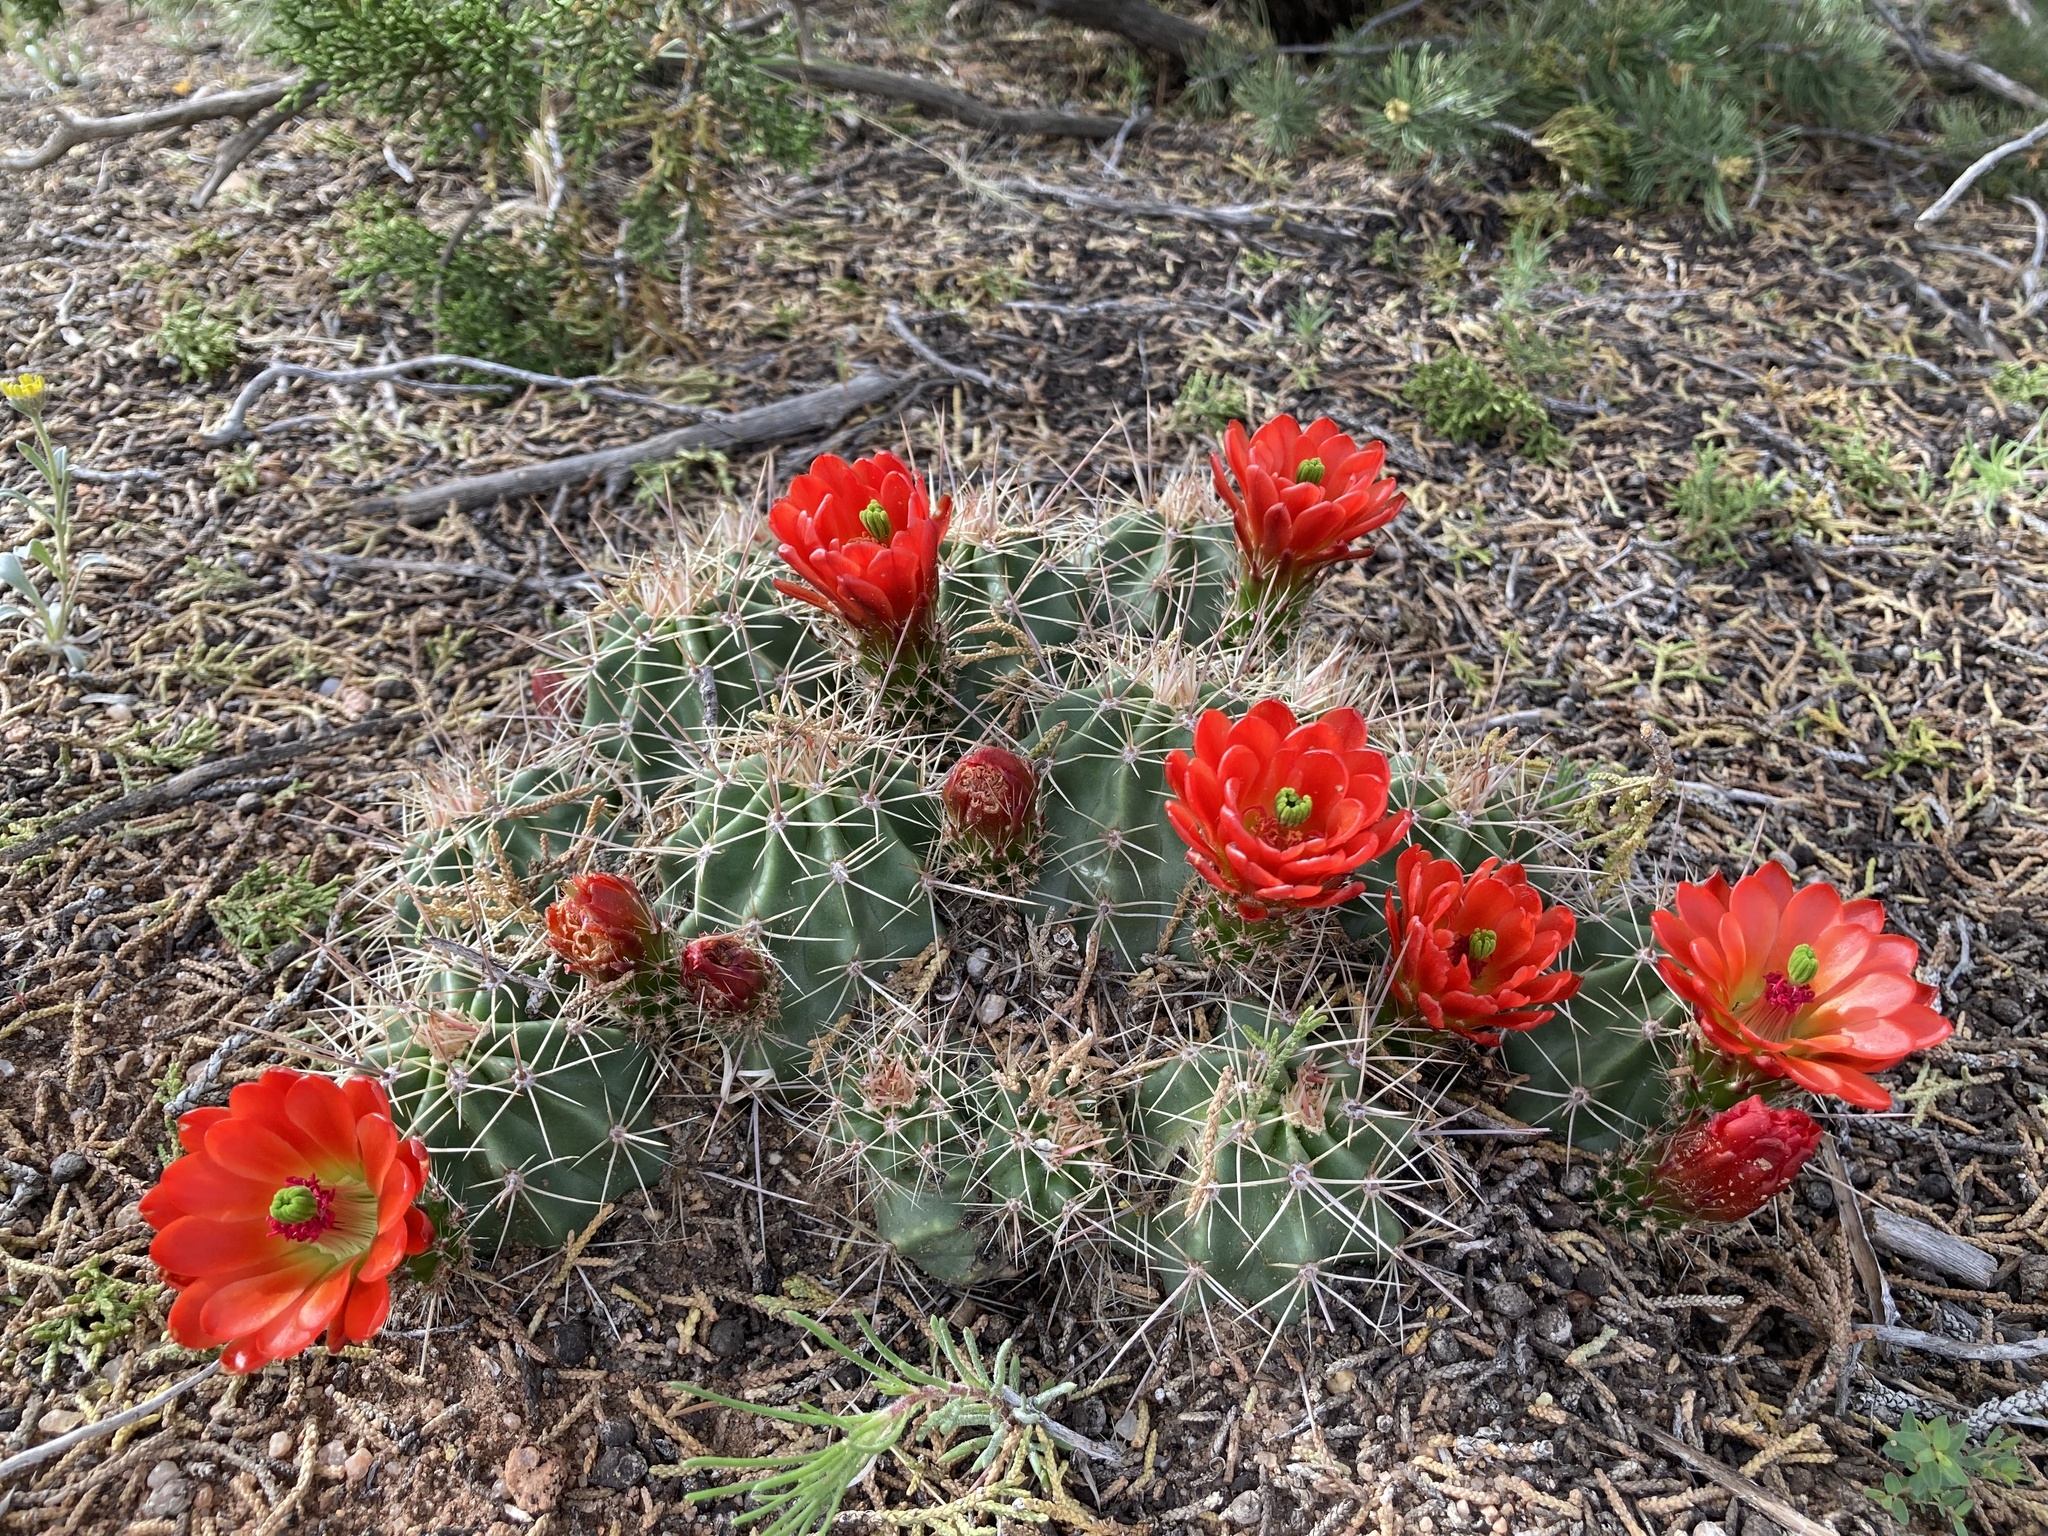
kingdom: Plantae
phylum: Tracheophyta
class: Magnoliopsida
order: Caryophyllales
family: Cactaceae
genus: Echinocereus
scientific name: Echinocereus coccineus
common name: Scarlet hedgehog cactus
